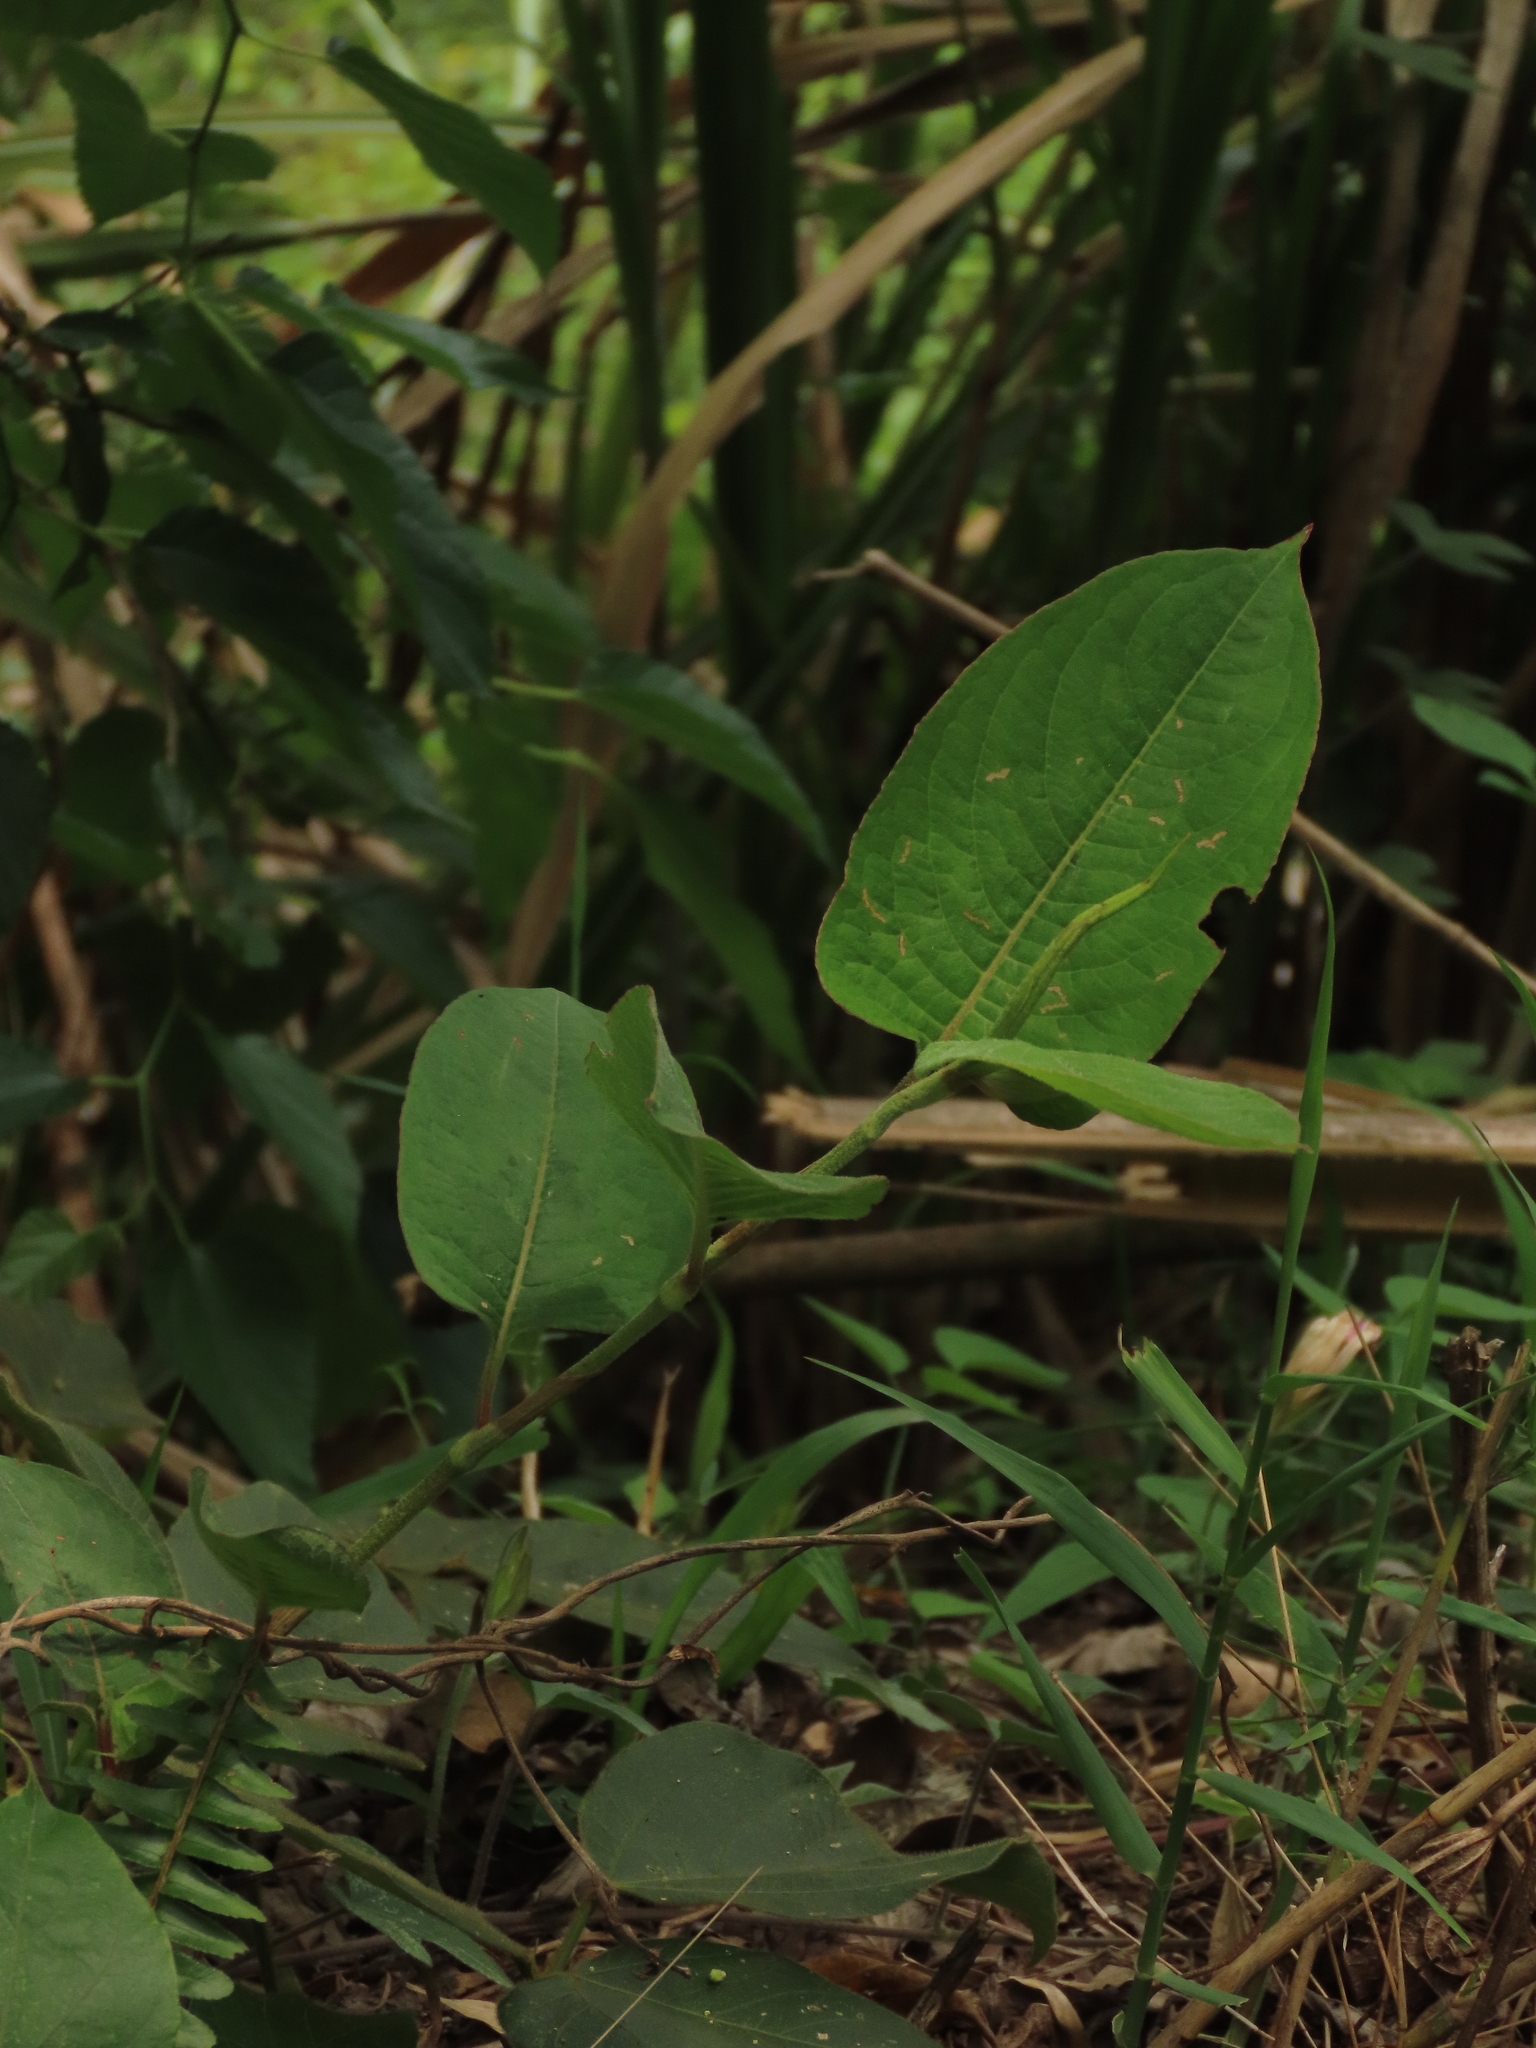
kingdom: Plantae
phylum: Tracheophyta
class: Magnoliopsida
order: Caryophyllales
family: Polygonaceae
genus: Persicaria
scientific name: Persicaria chinensis
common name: Chinese knotweed
